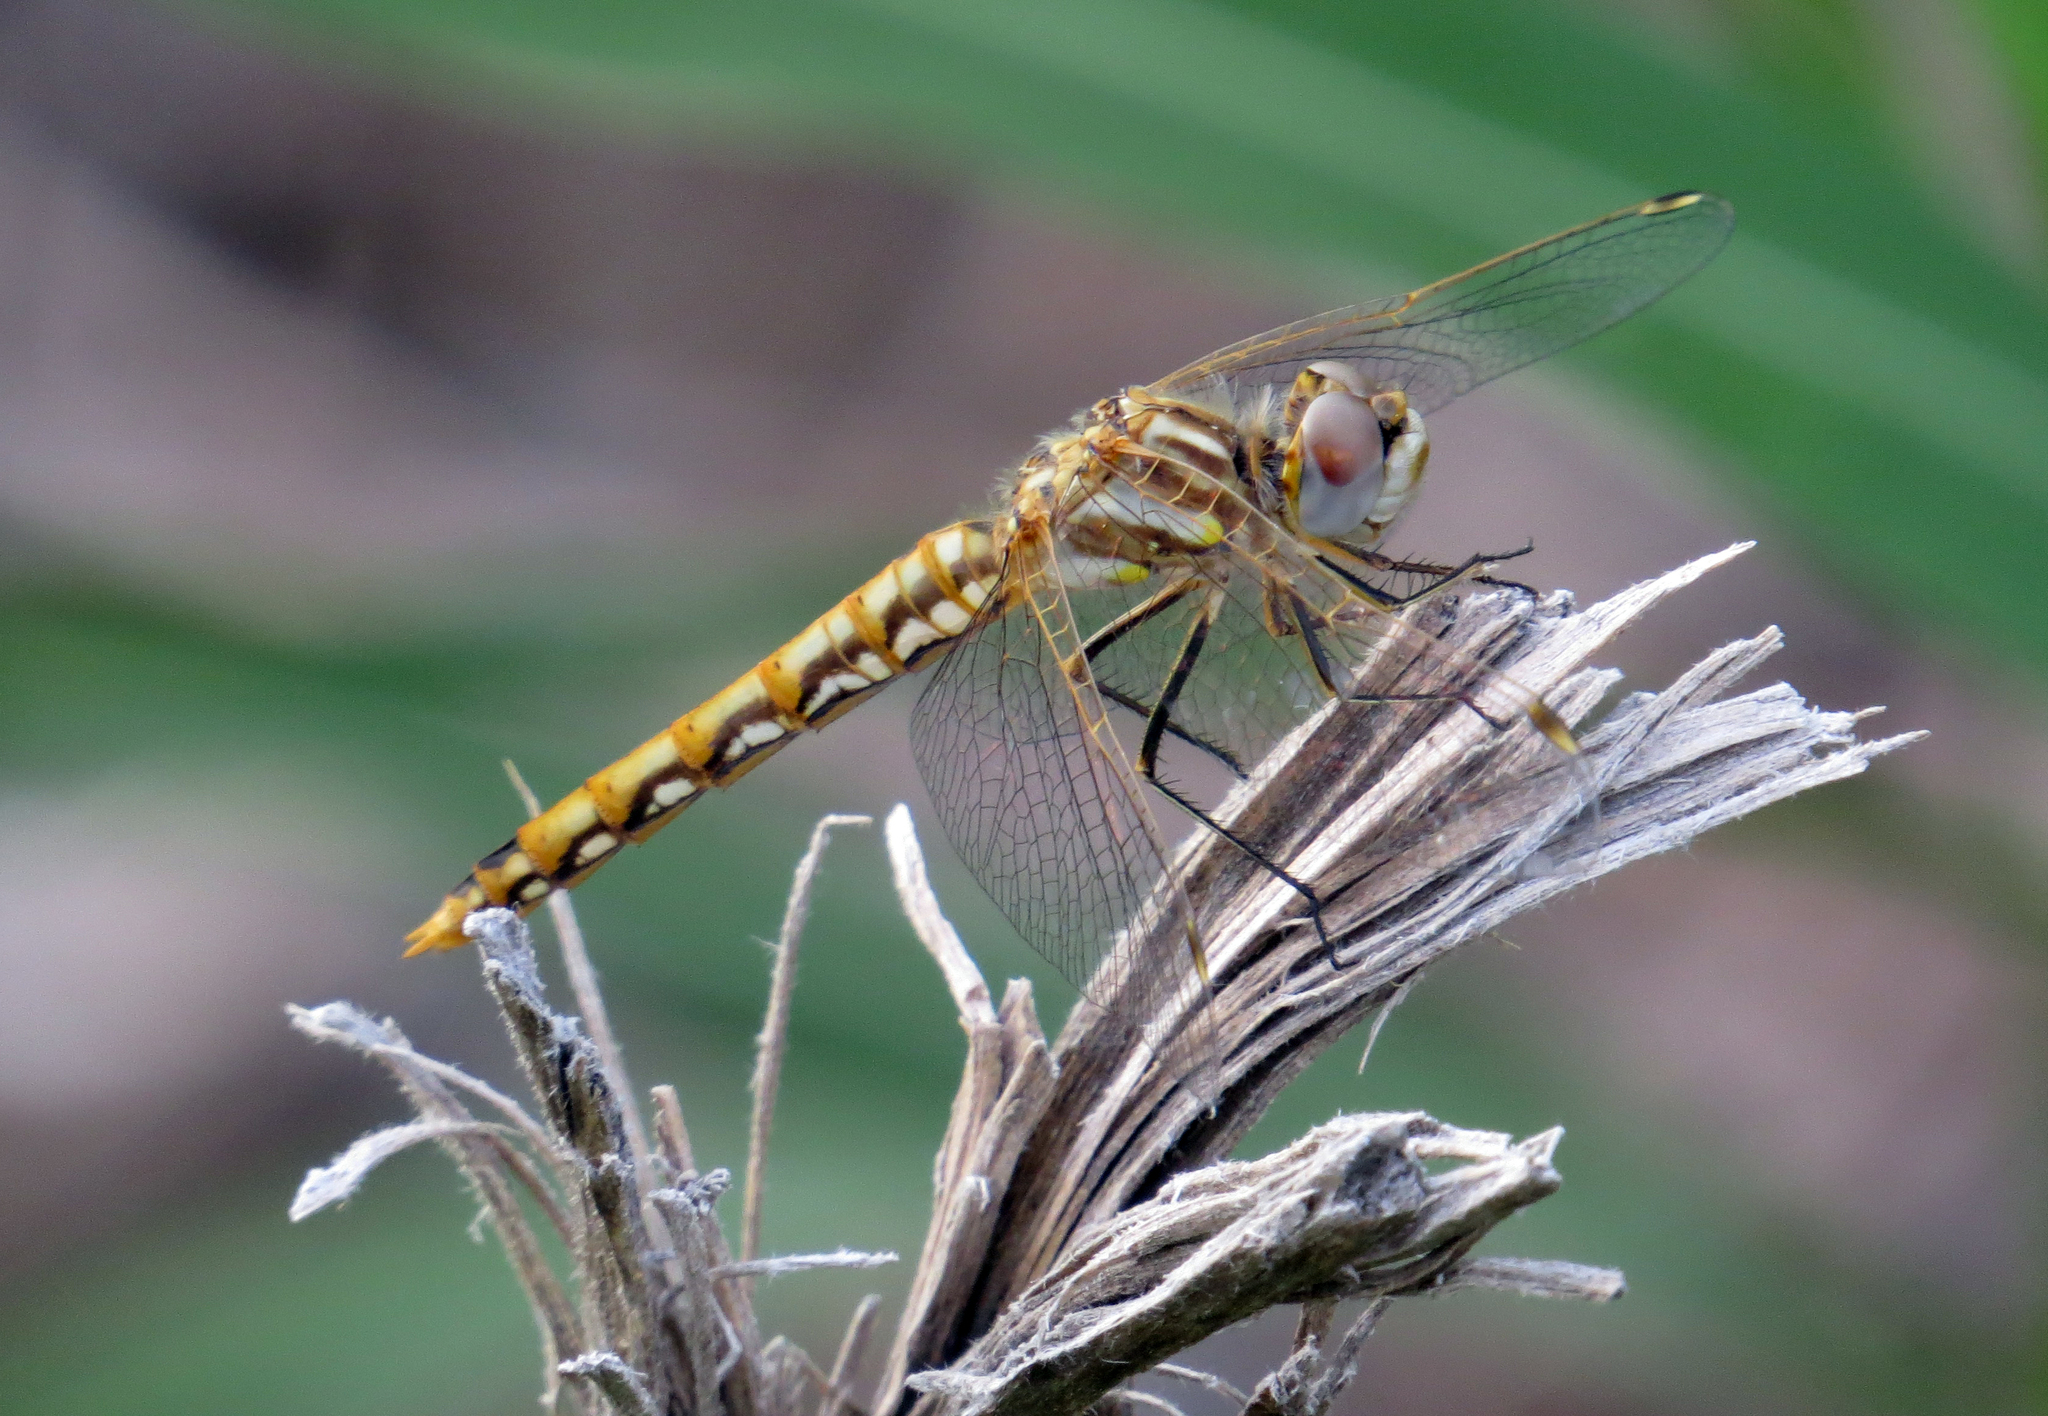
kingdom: Animalia
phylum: Arthropoda
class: Insecta
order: Odonata
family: Libellulidae
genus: Sympetrum
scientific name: Sympetrum corruptum
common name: Variegated meadowhawk
